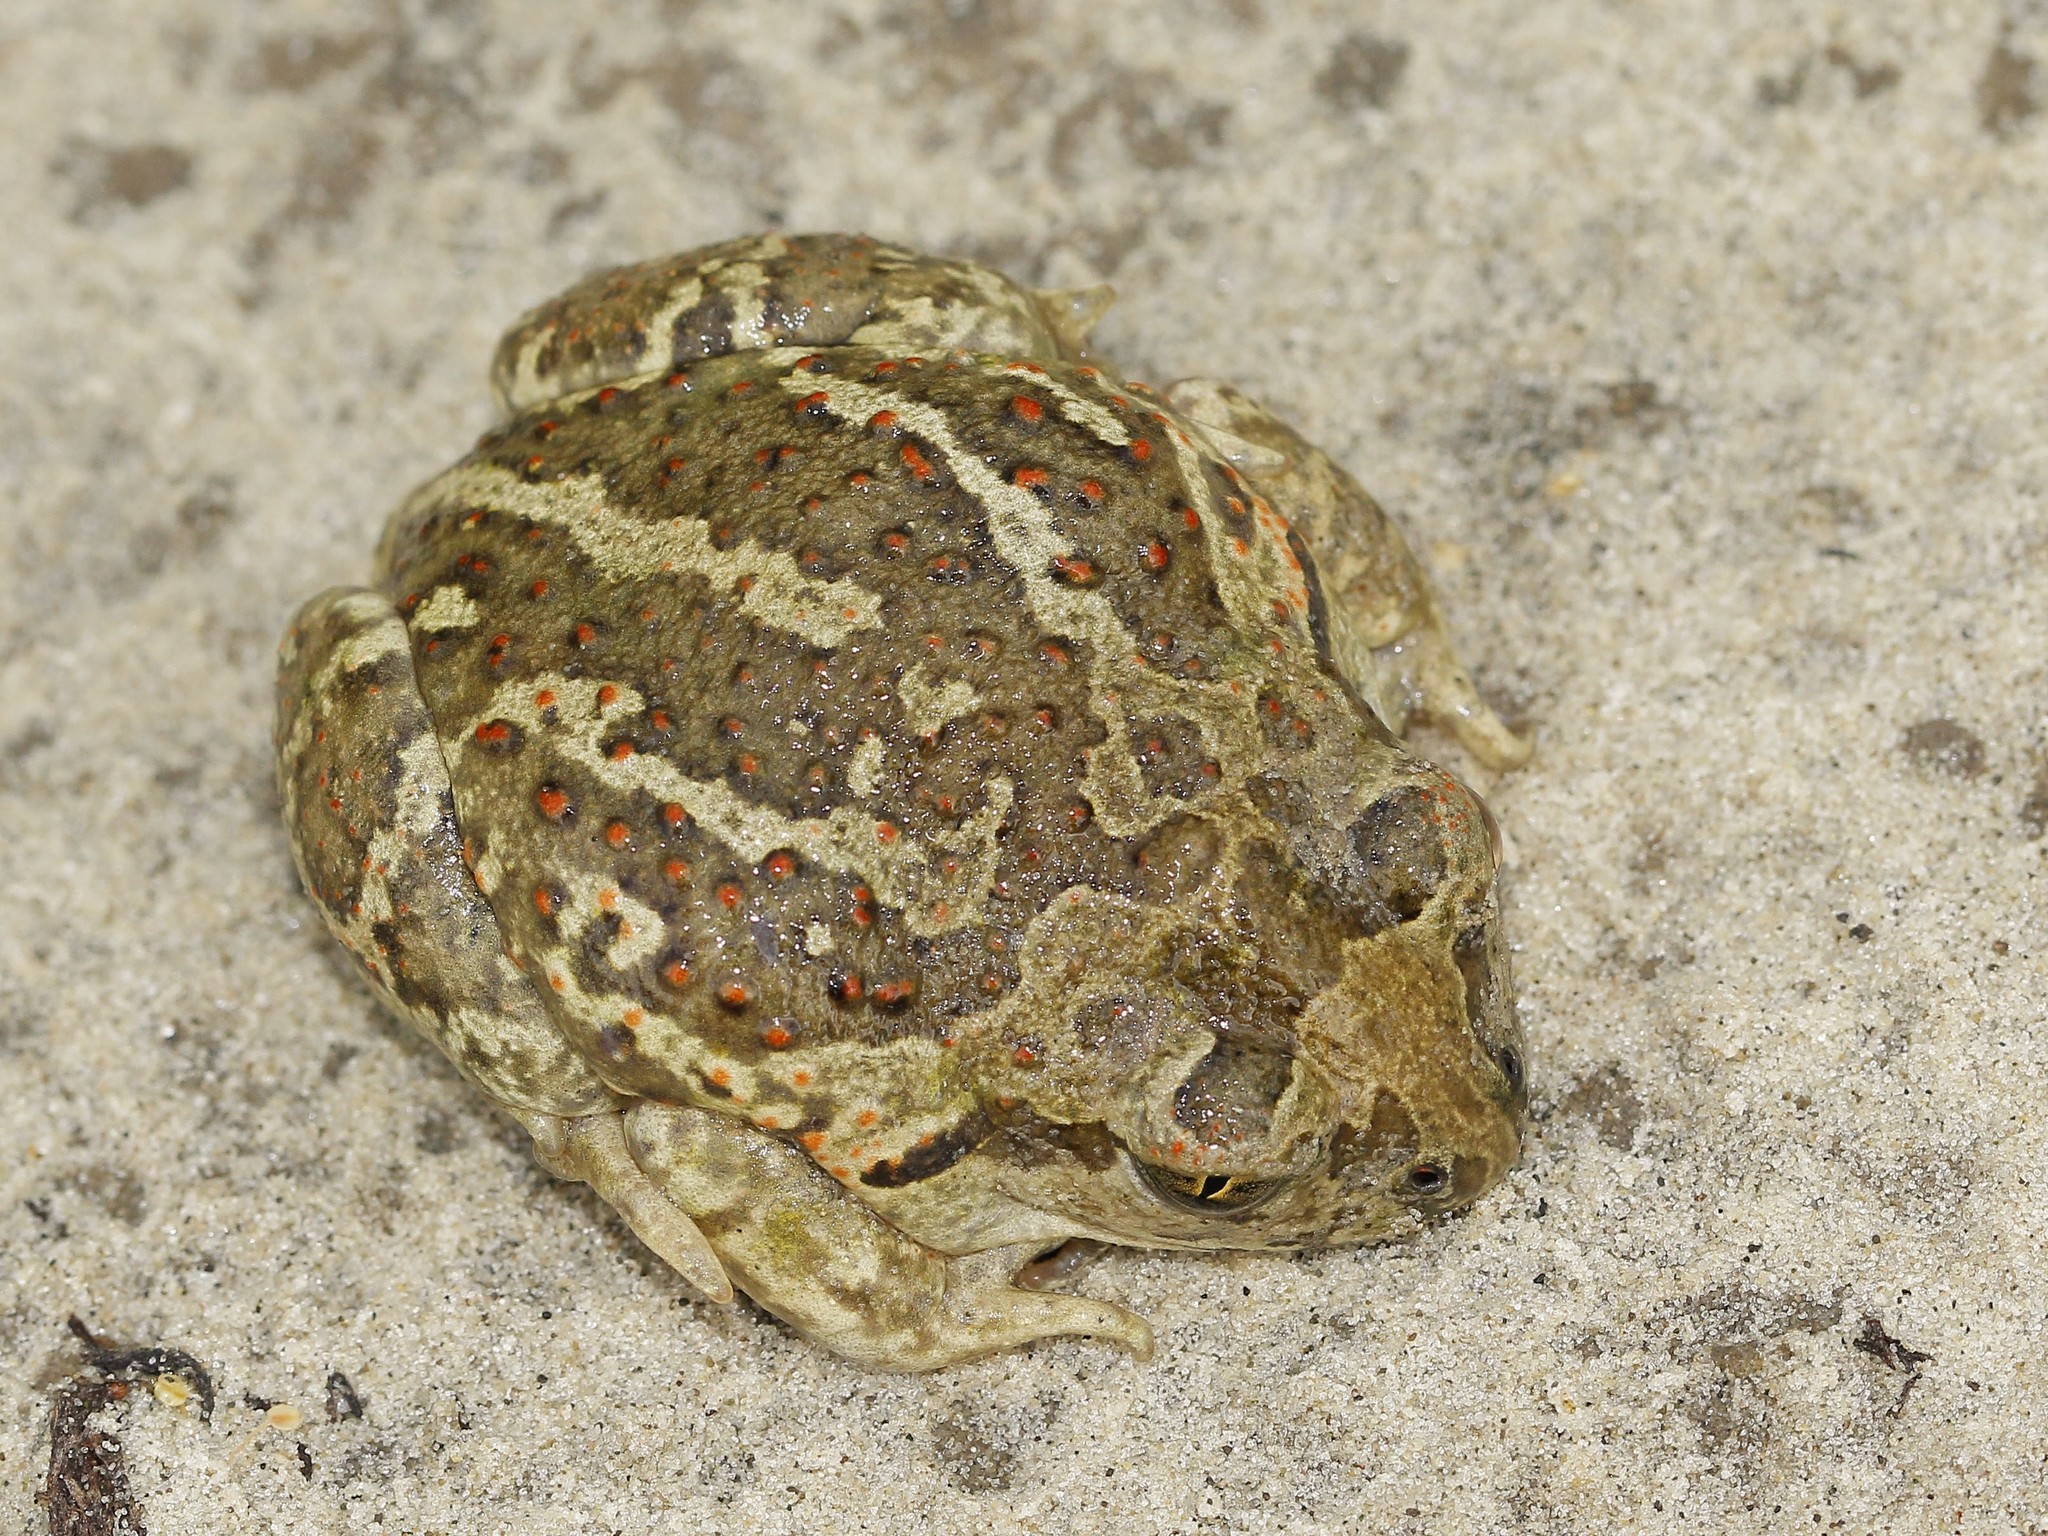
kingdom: Animalia
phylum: Chordata
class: Amphibia
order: Anura
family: Pelobatidae
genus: Pelobates
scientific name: Pelobates vespertinus
